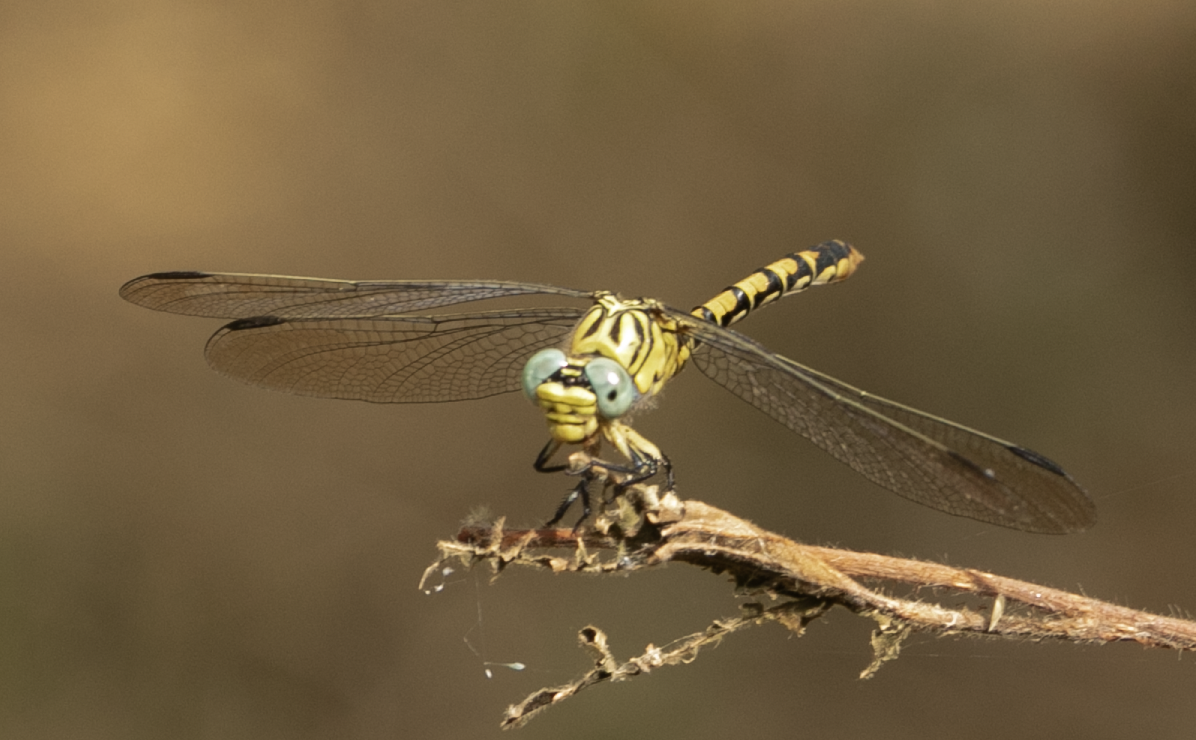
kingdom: Animalia
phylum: Arthropoda
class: Insecta
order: Odonata
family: Gomphidae
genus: Onychogomphus
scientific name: Onychogomphus forcipatus
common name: Small pincertail
